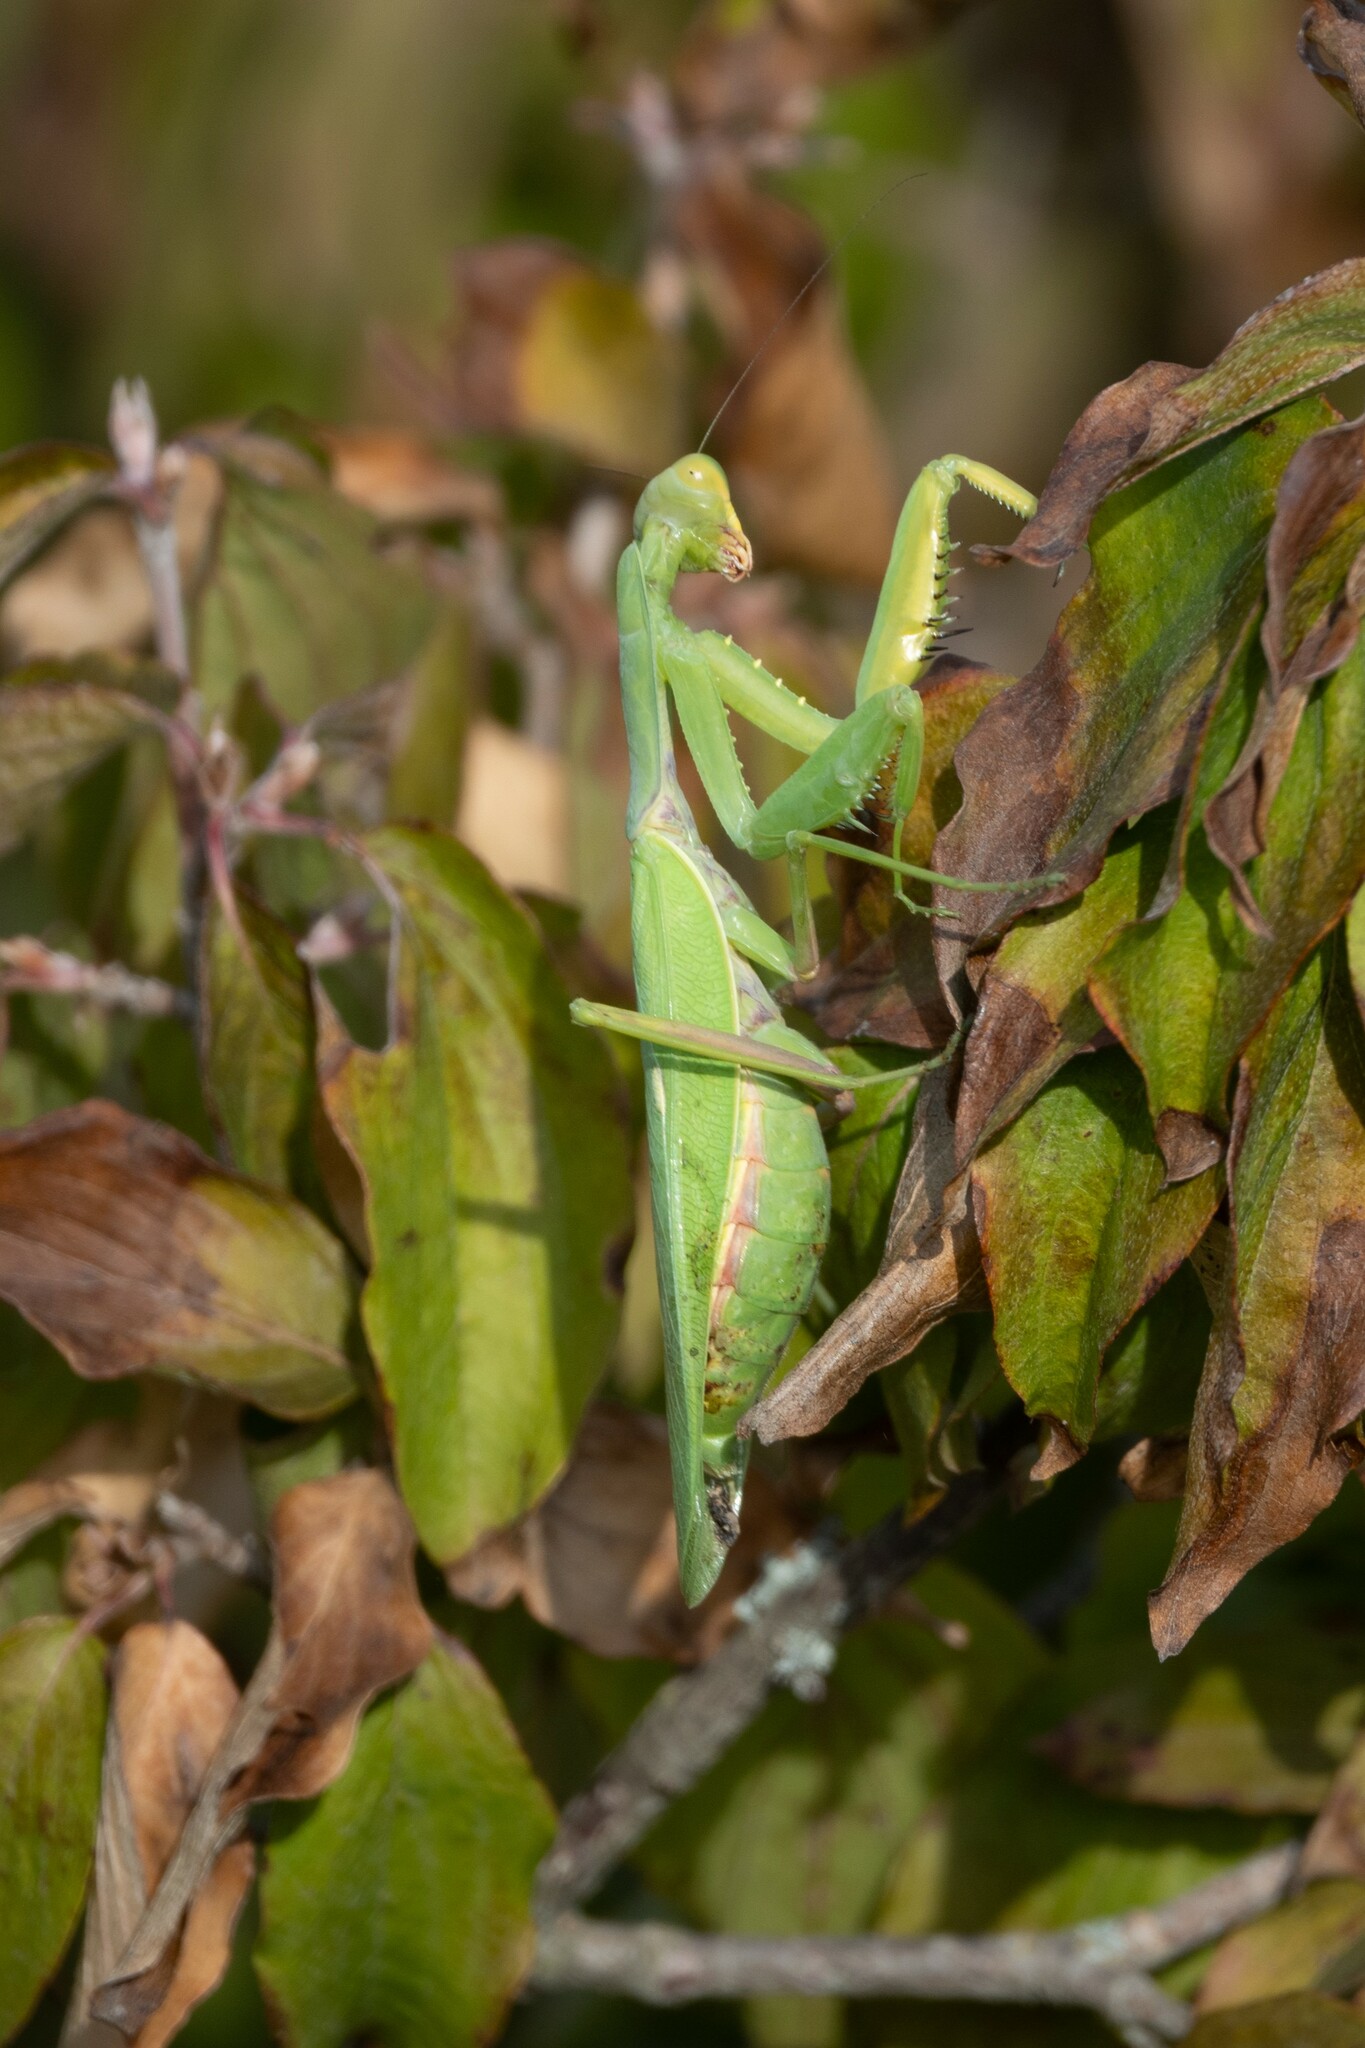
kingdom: Animalia
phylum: Arthropoda
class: Insecta
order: Mantodea
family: Mantidae
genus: Hierodula
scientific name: Hierodula transcaucasica
